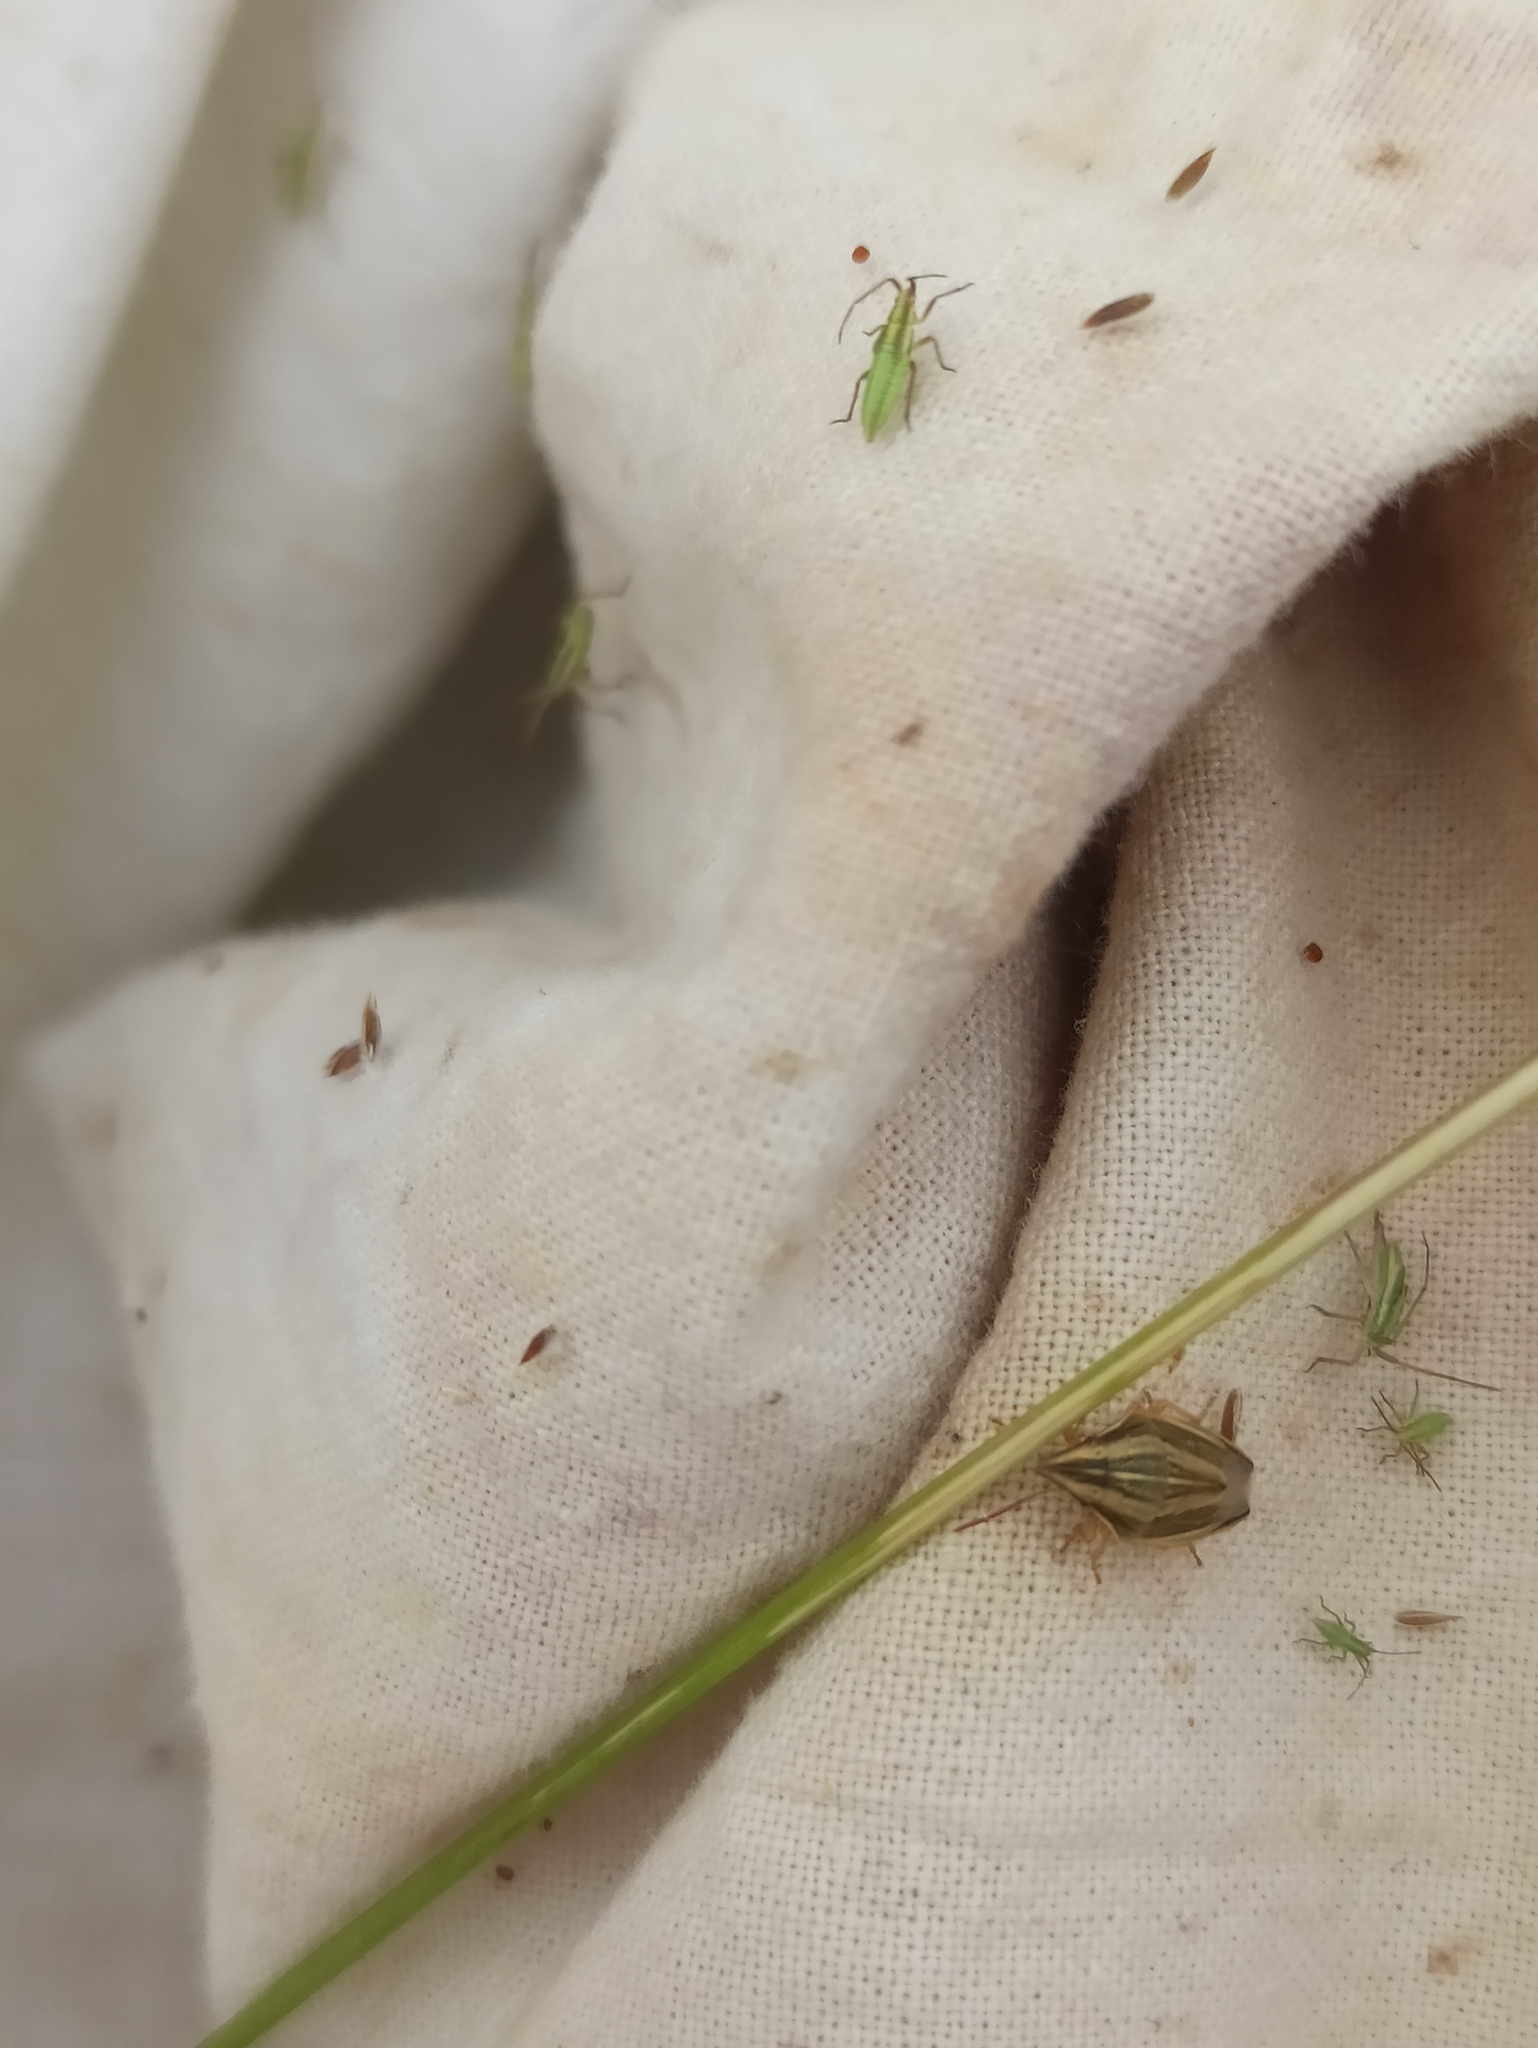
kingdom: Animalia
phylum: Arthropoda
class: Insecta
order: Hemiptera
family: Pentatomidae
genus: Aelia
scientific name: Aelia acuminata
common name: Bishop's mitre
